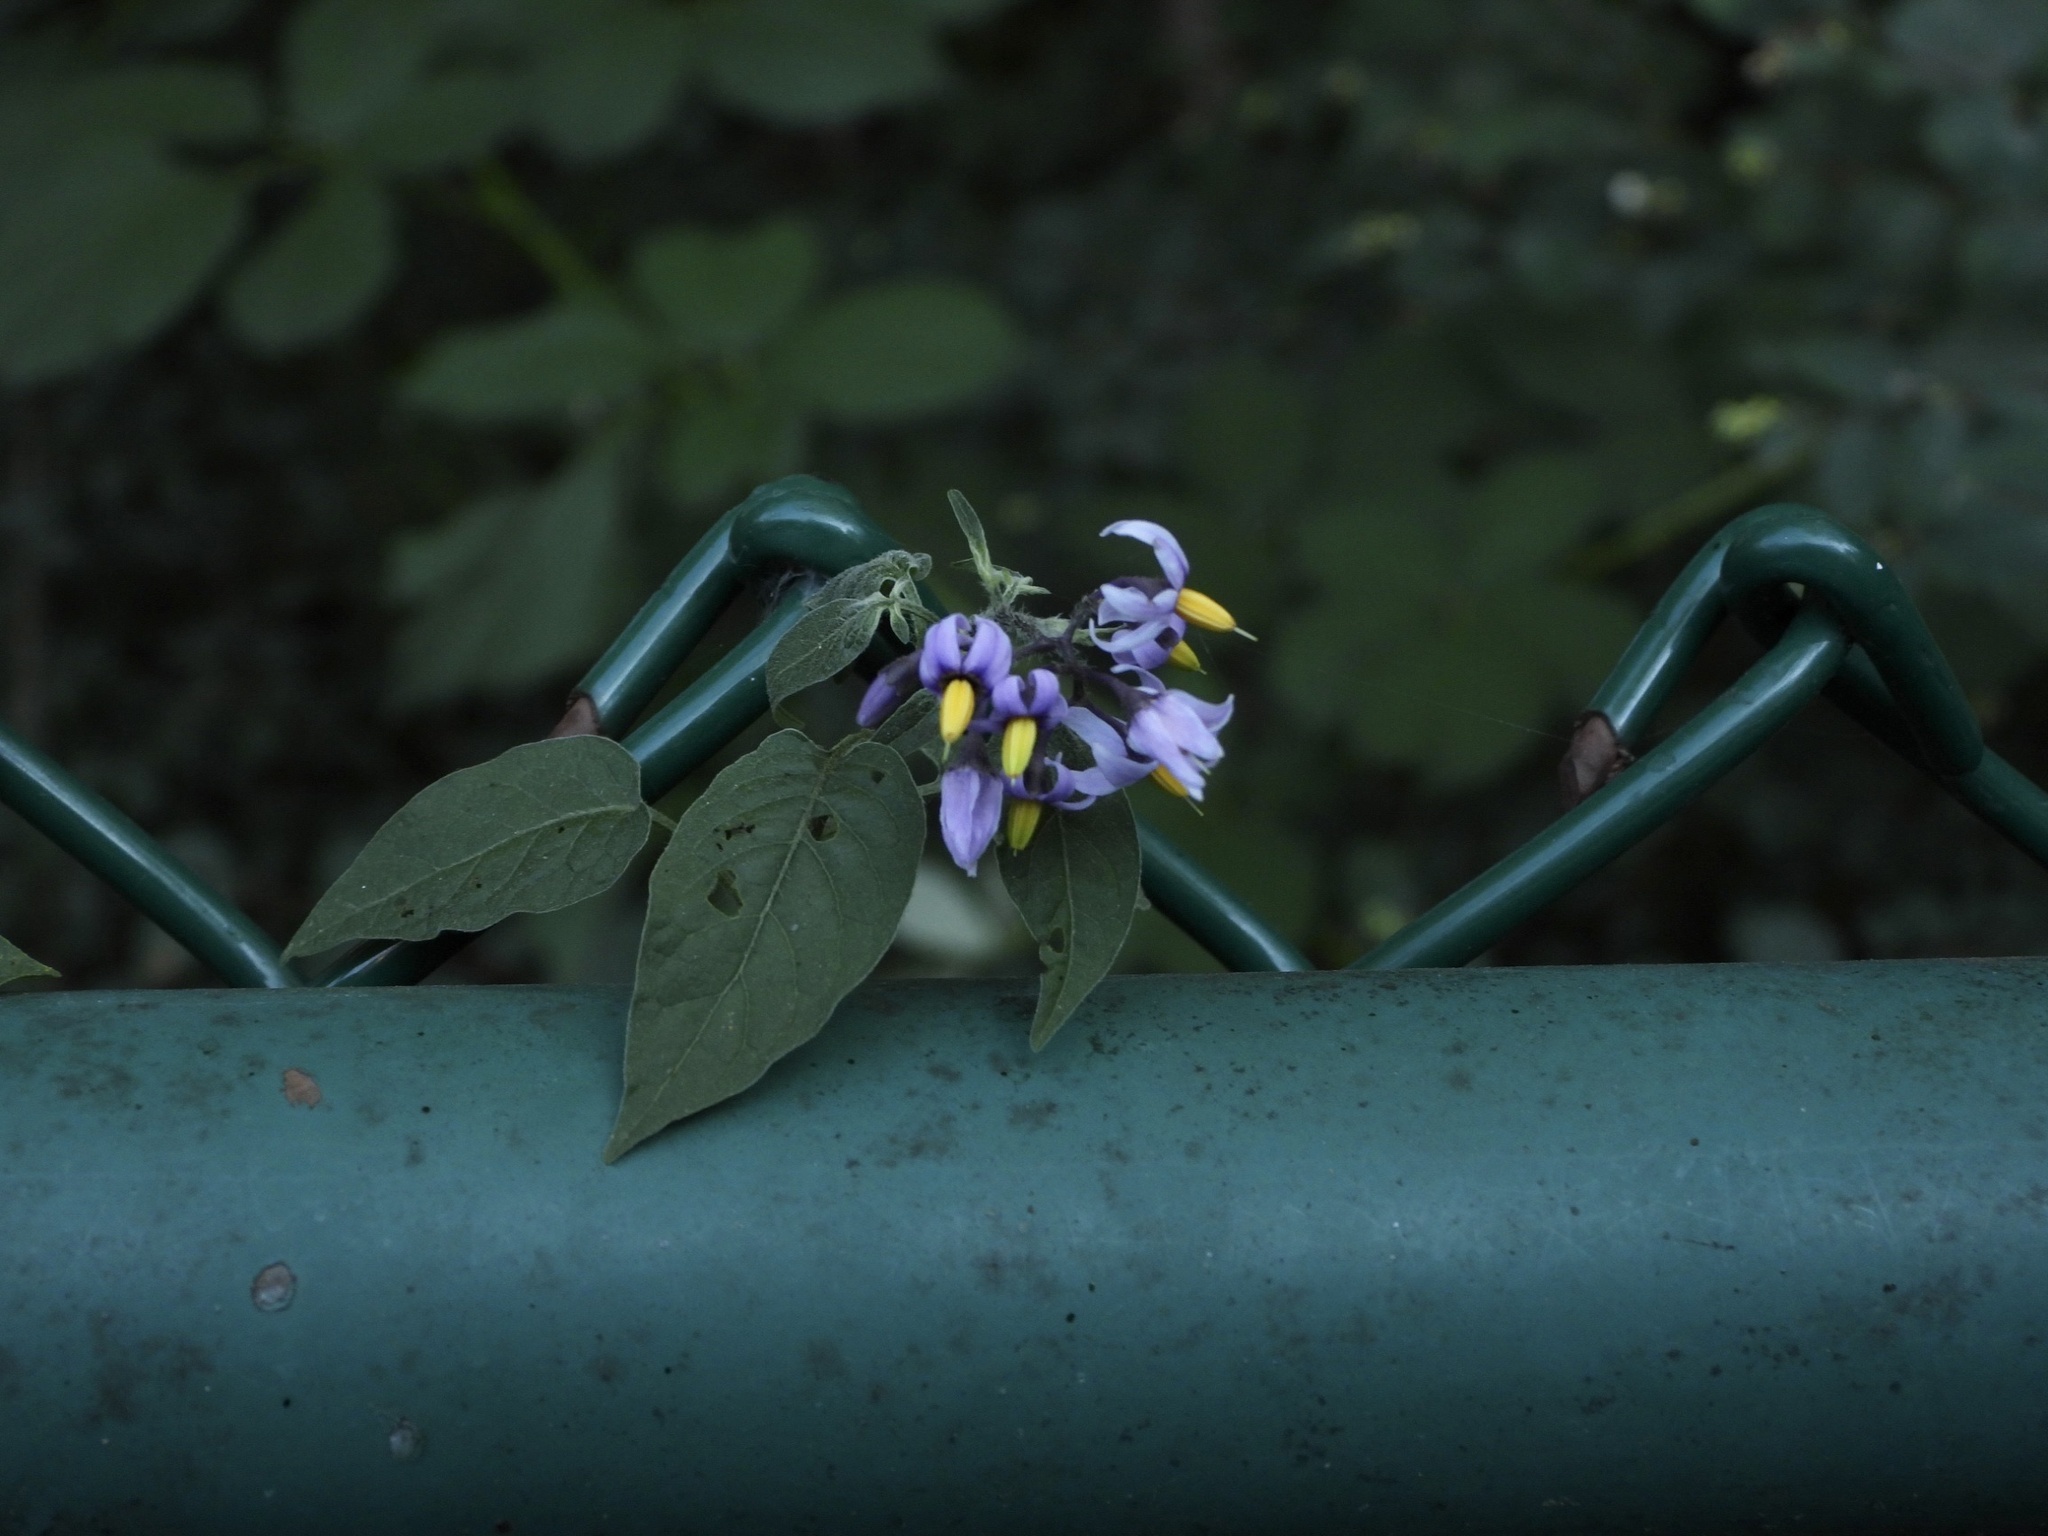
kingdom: Plantae
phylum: Tracheophyta
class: Magnoliopsida
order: Solanales
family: Solanaceae
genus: Solanum
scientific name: Solanum dulcamara
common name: Climbing nightshade
